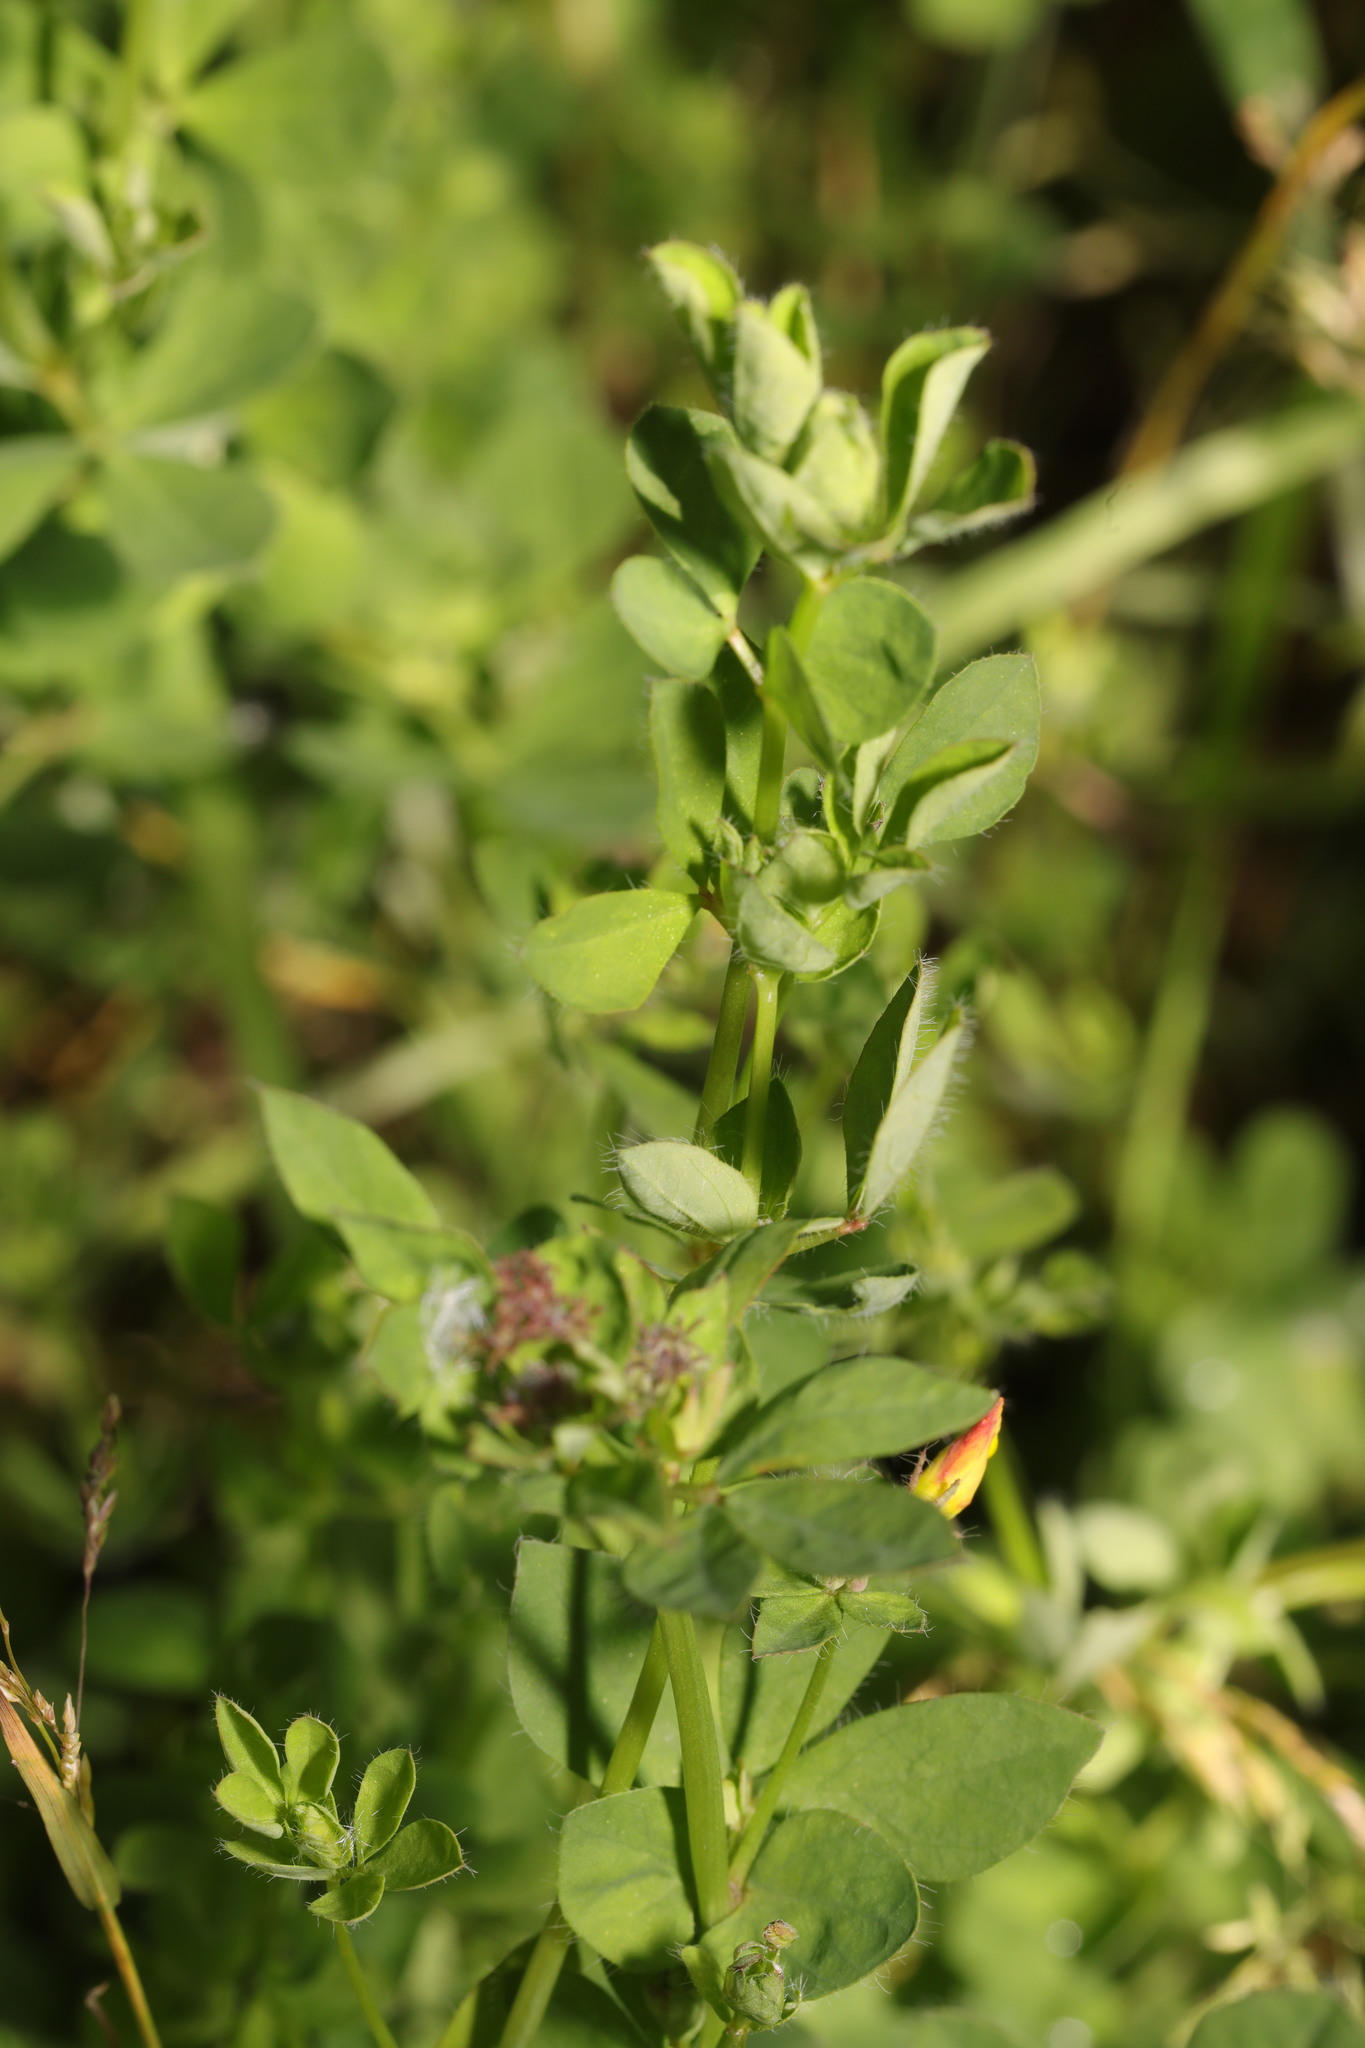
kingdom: Plantae
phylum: Tracheophyta
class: Magnoliopsida
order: Fabales
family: Fabaceae
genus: Lotus
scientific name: Lotus pedunculatus
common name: Greater birdsfoot-trefoil
